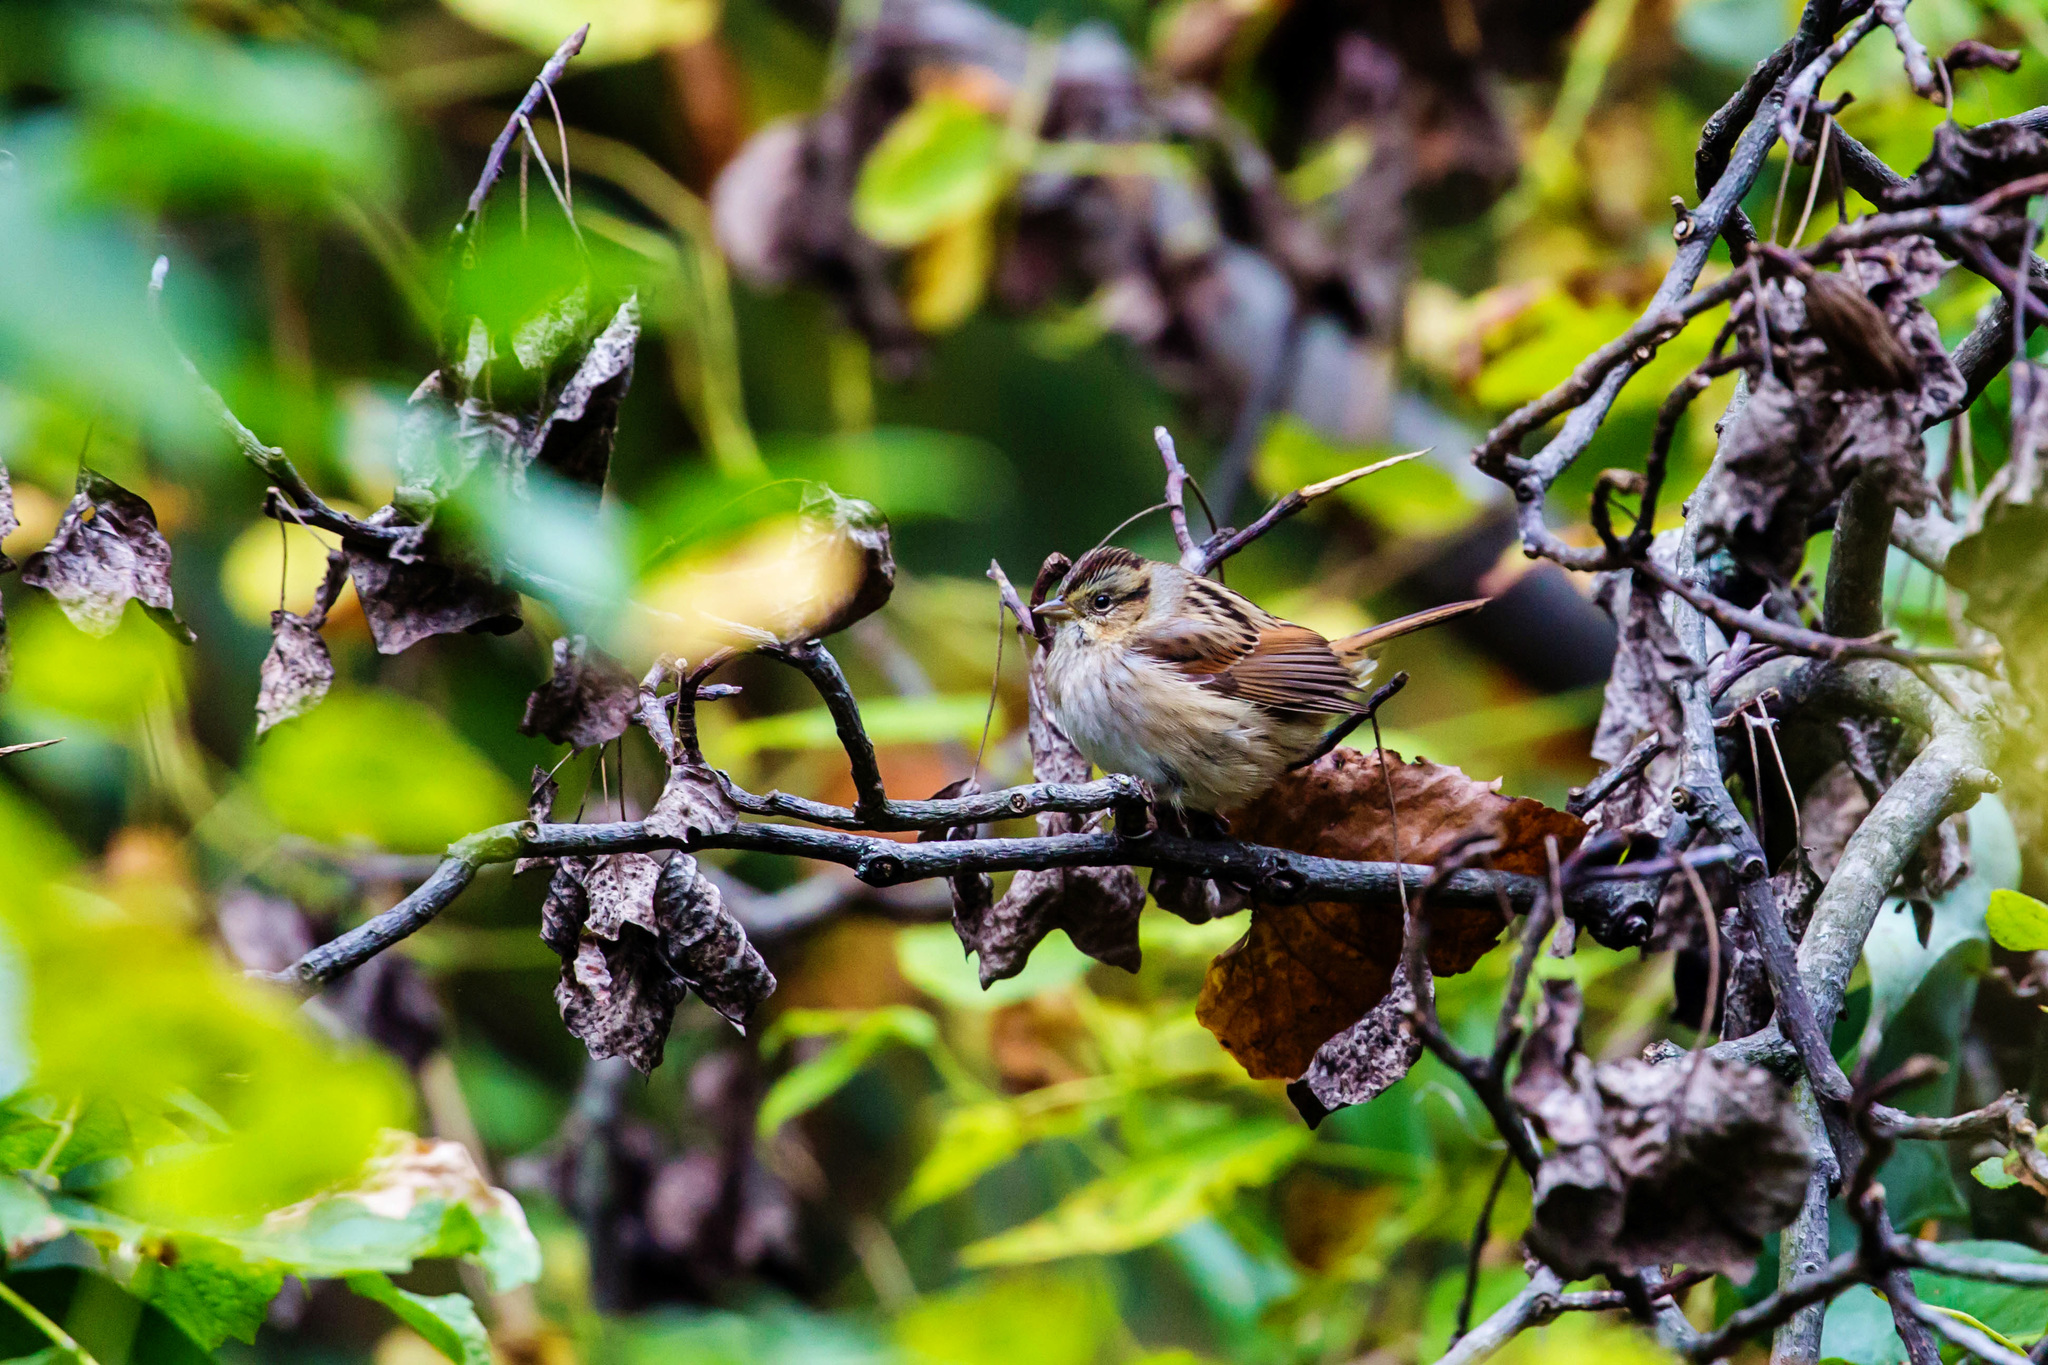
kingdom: Animalia
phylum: Chordata
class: Aves
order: Passeriformes
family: Passerellidae
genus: Melospiza
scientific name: Melospiza georgiana
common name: Swamp sparrow
